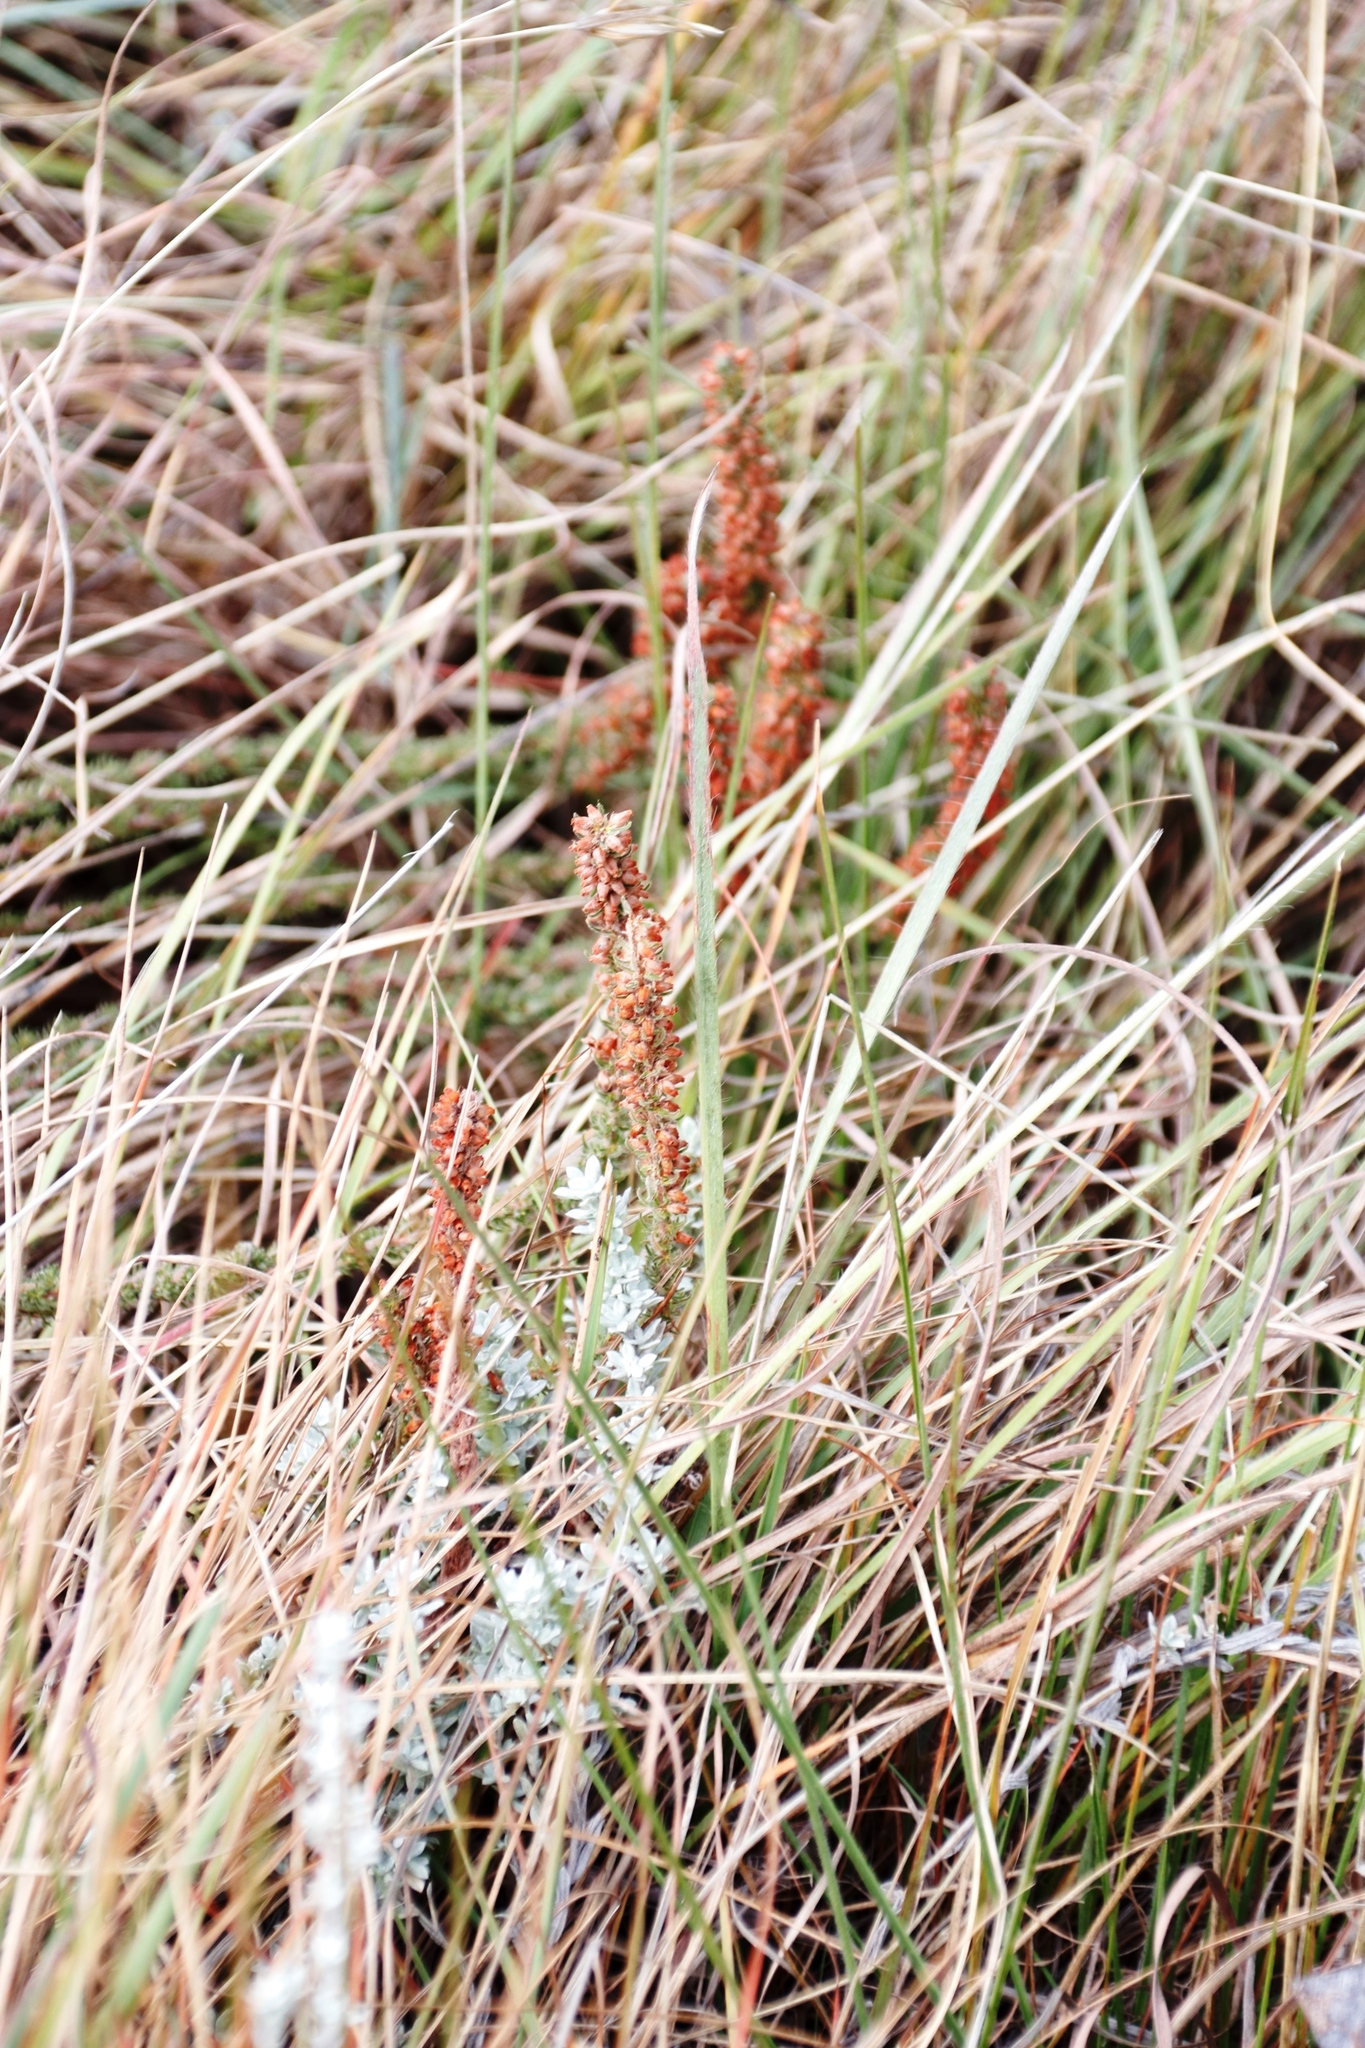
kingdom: Plantae
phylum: Tracheophyta
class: Magnoliopsida
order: Ericales
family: Ericaceae
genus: Erica
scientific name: Erica alopecurus
